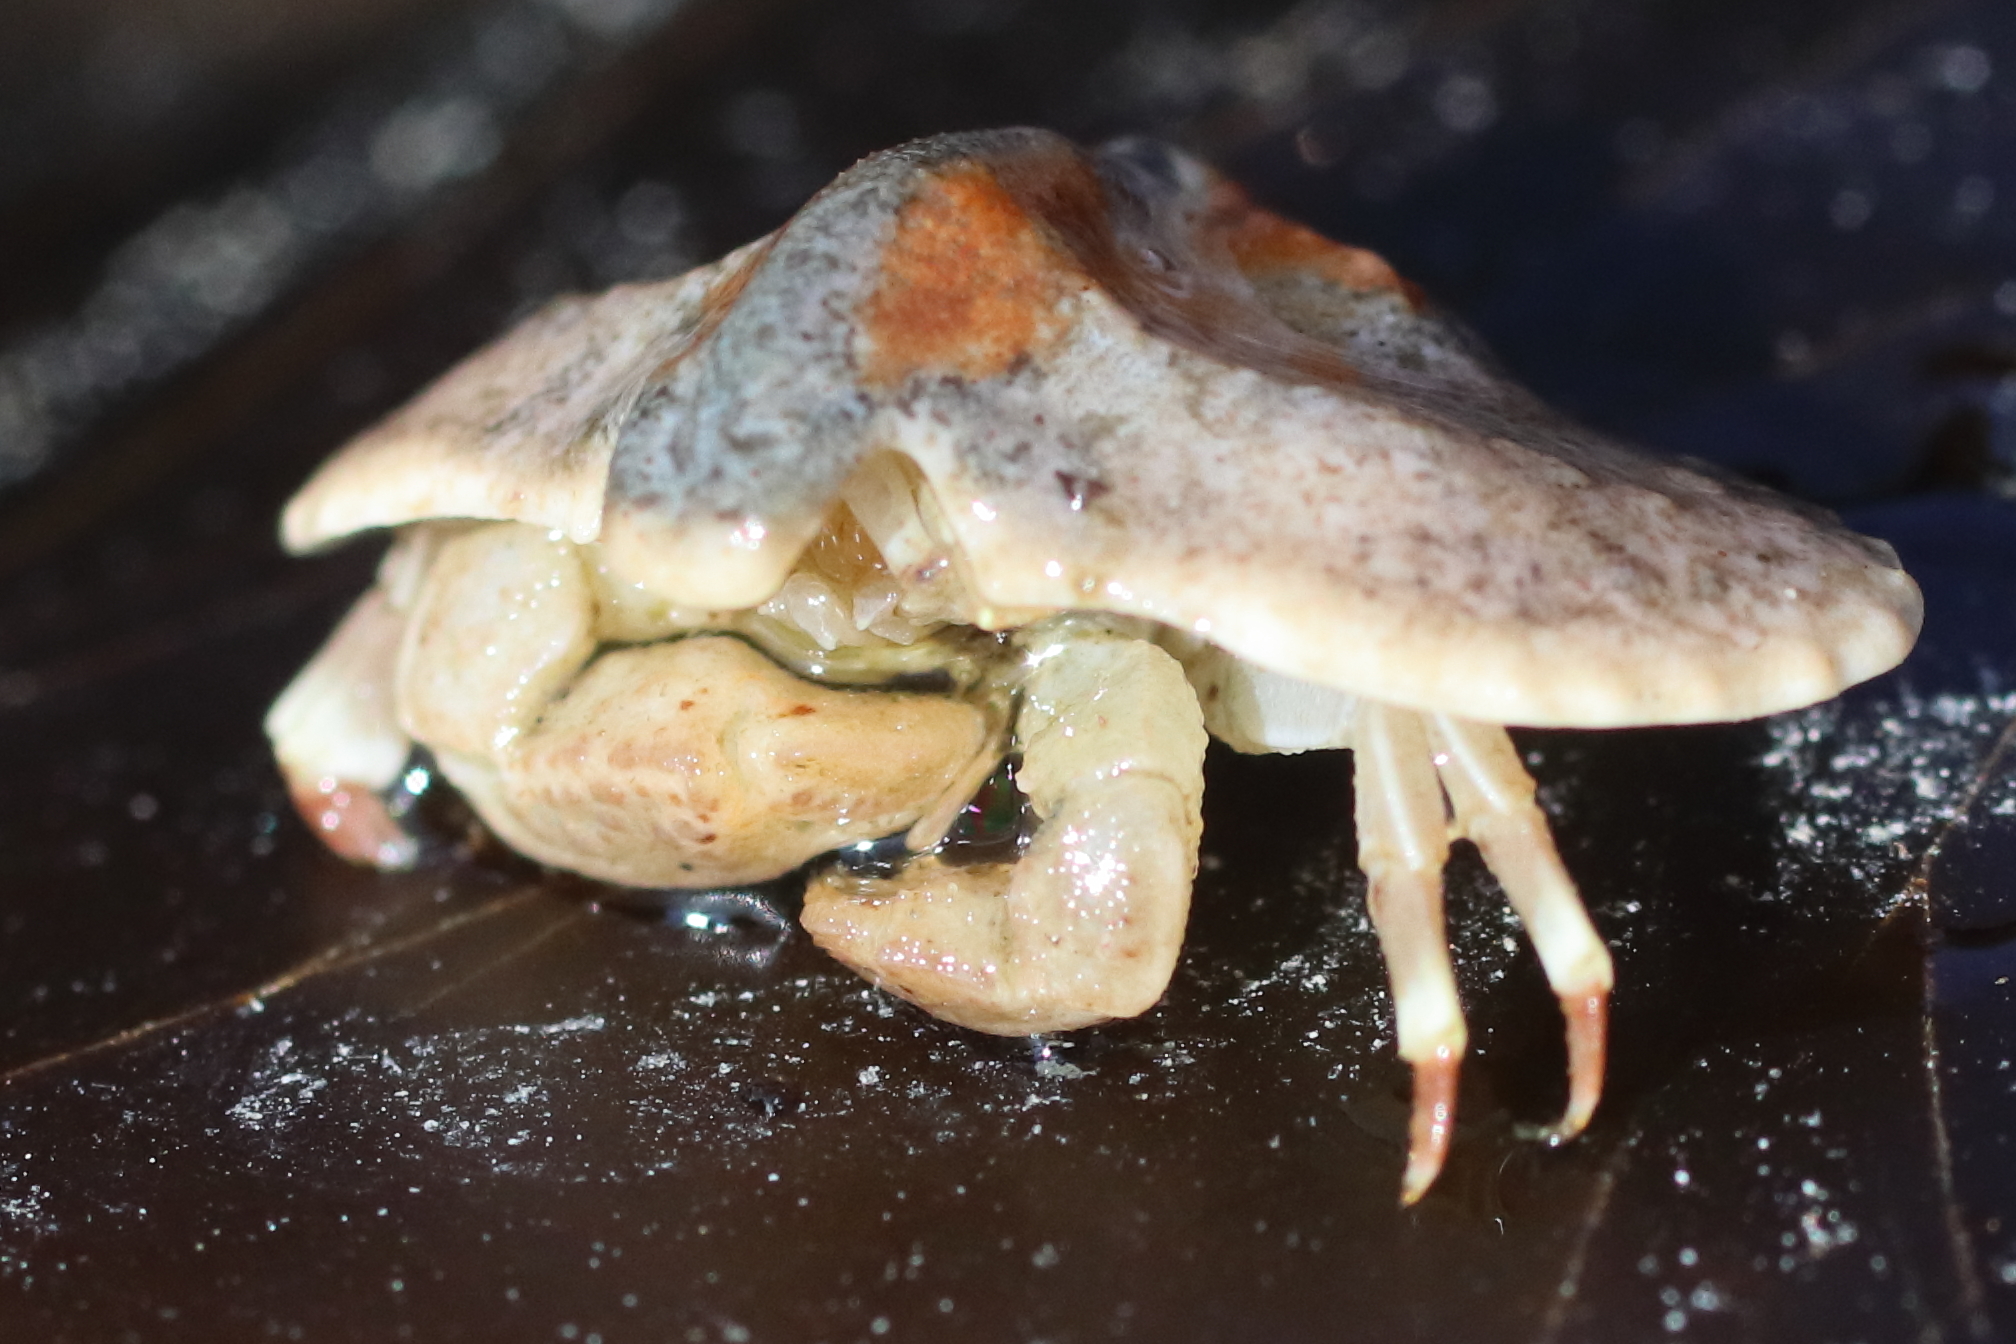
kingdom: Animalia
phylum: Arthropoda
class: Malacostraca
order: Decapoda
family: Lithodidae
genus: Cryptolithodes
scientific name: Cryptolithodes typicus
